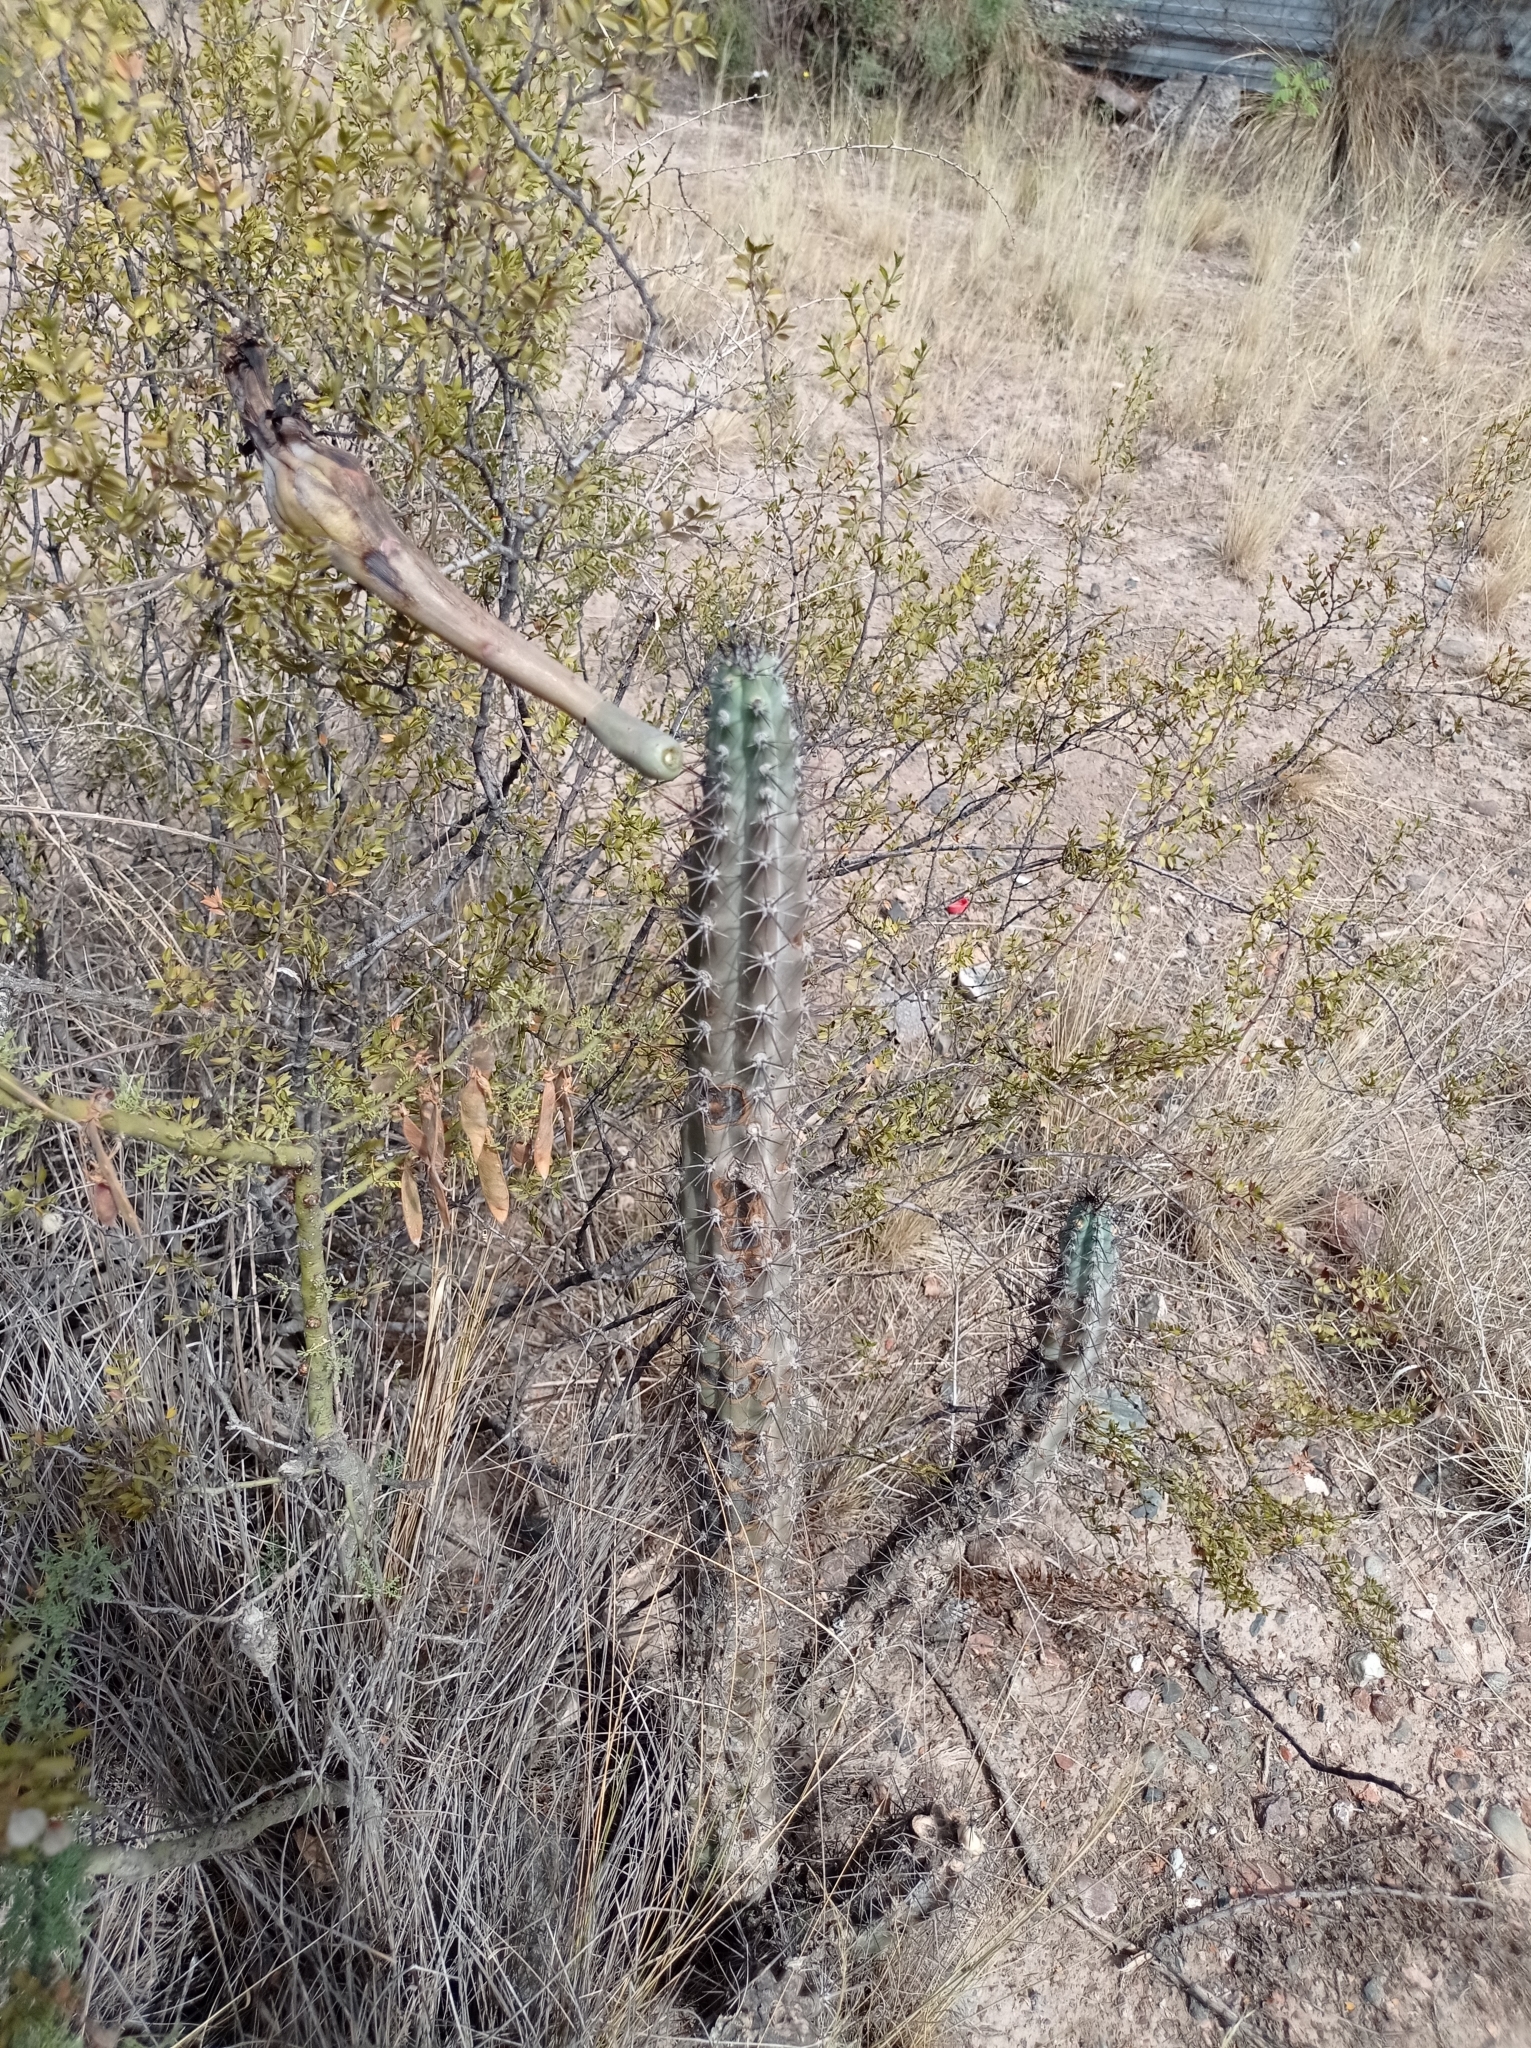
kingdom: Plantae
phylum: Tracheophyta
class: Magnoliopsida
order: Caryophyllales
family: Cactaceae
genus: Cereus
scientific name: Cereus aethiops
